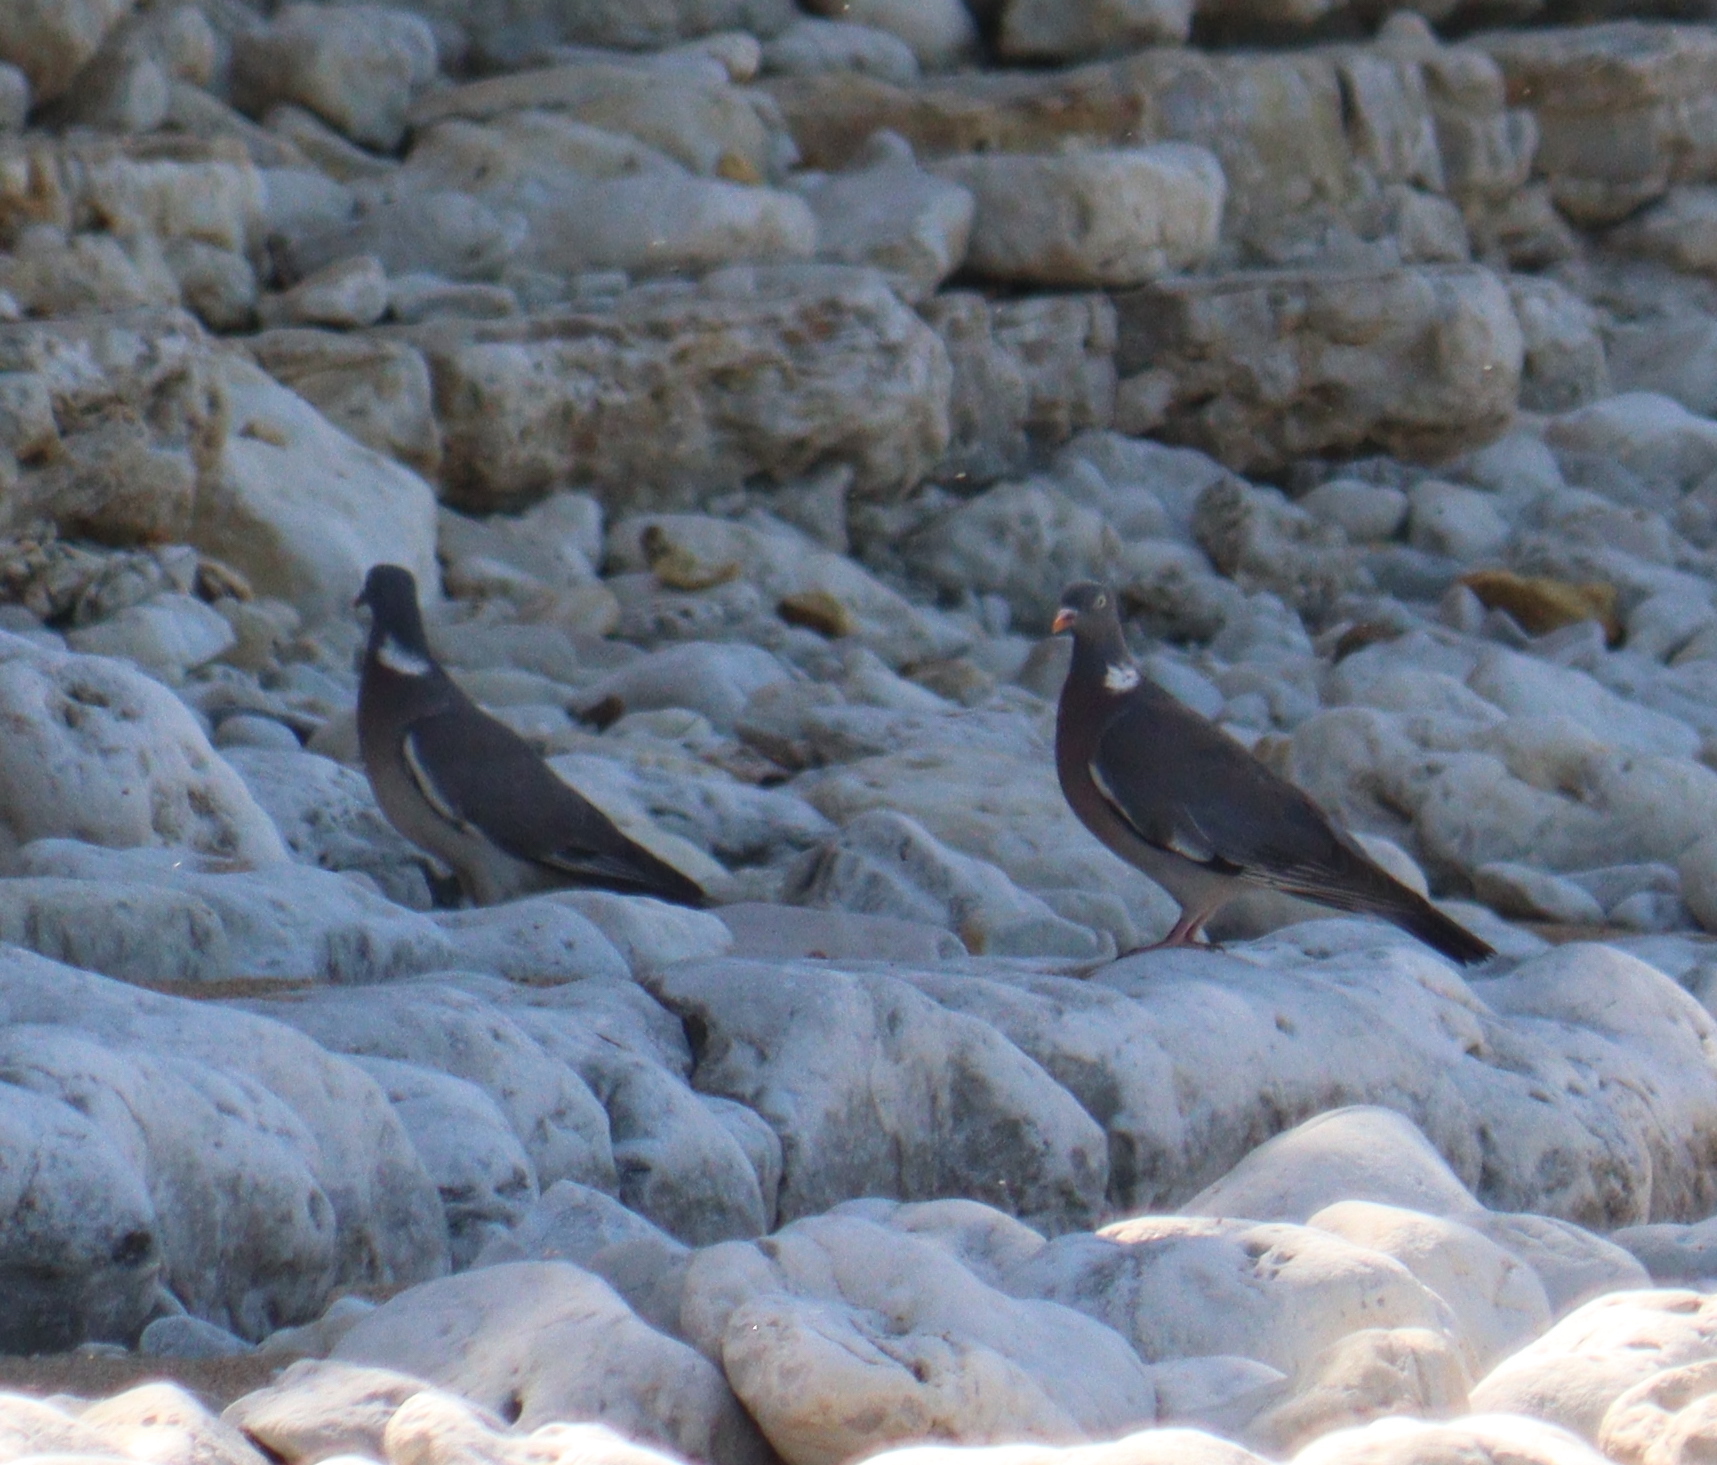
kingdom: Animalia
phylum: Chordata
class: Aves
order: Columbiformes
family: Columbidae
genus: Columba
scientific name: Columba palumbus
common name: Common wood pigeon
